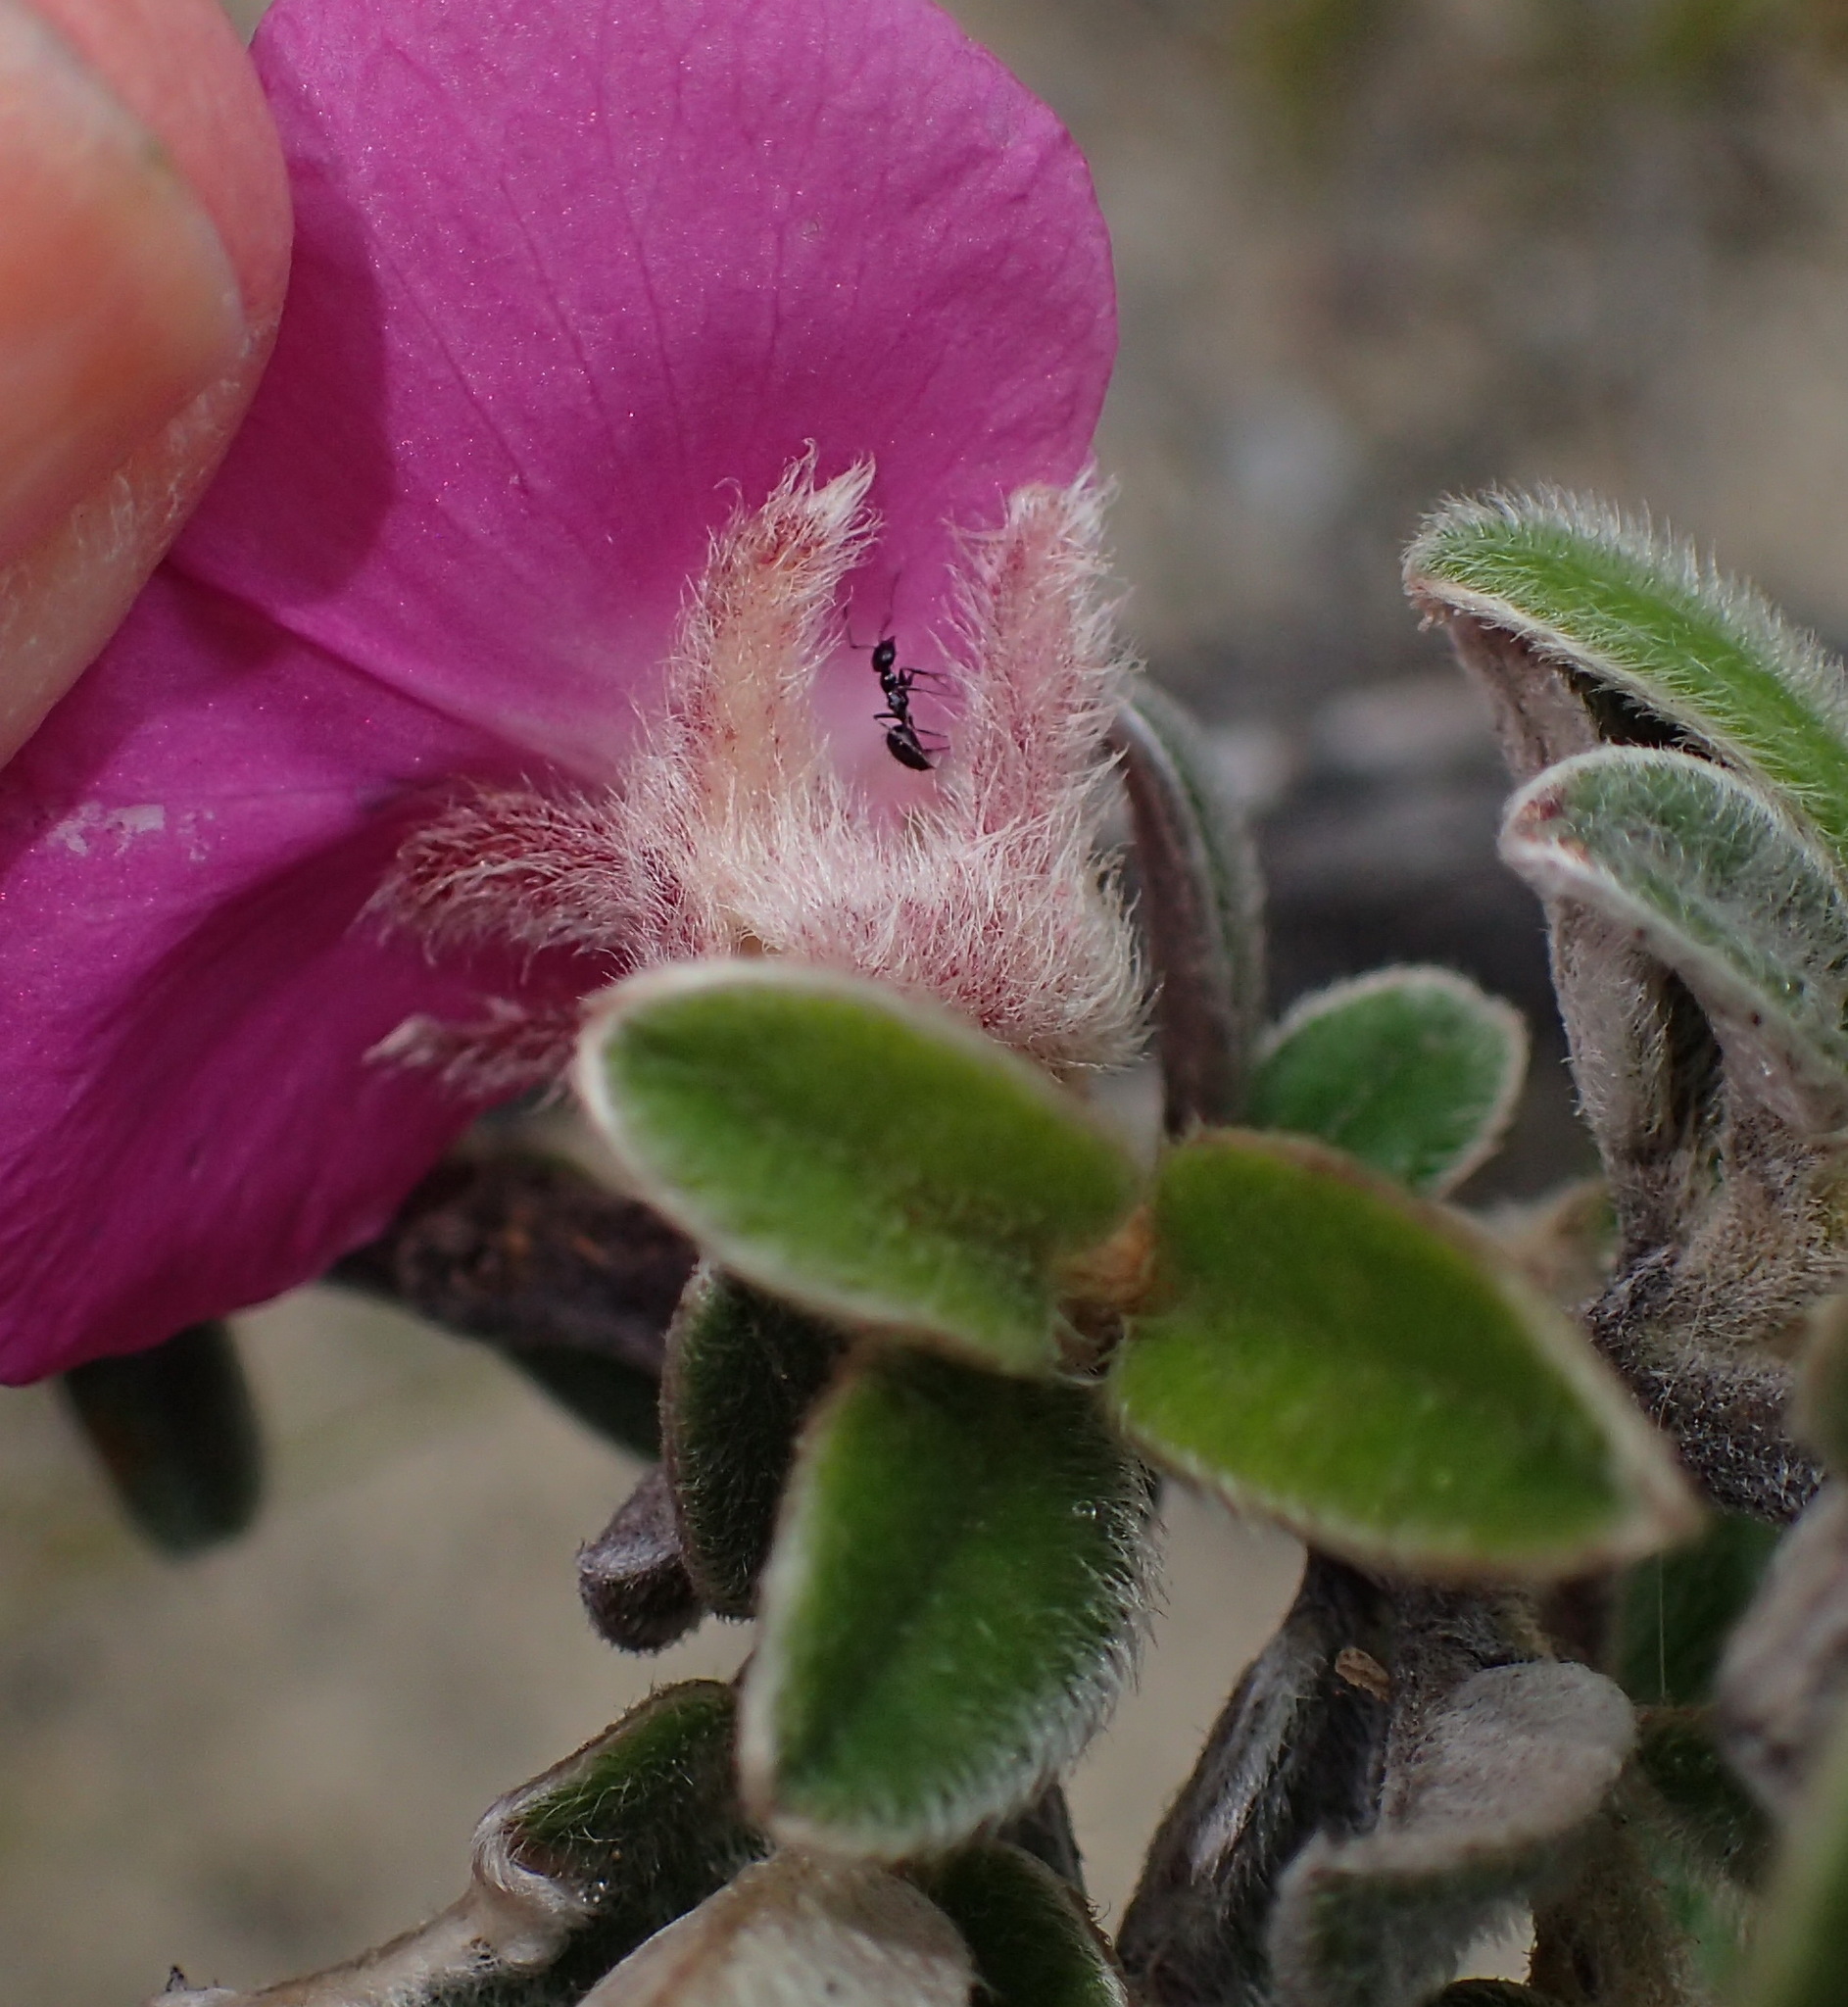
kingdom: Plantae
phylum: Tracheophyta
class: Magnoliopsida
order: Fabales
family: Fabaceae
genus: Podalyria
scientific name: Podalyria burchellii
